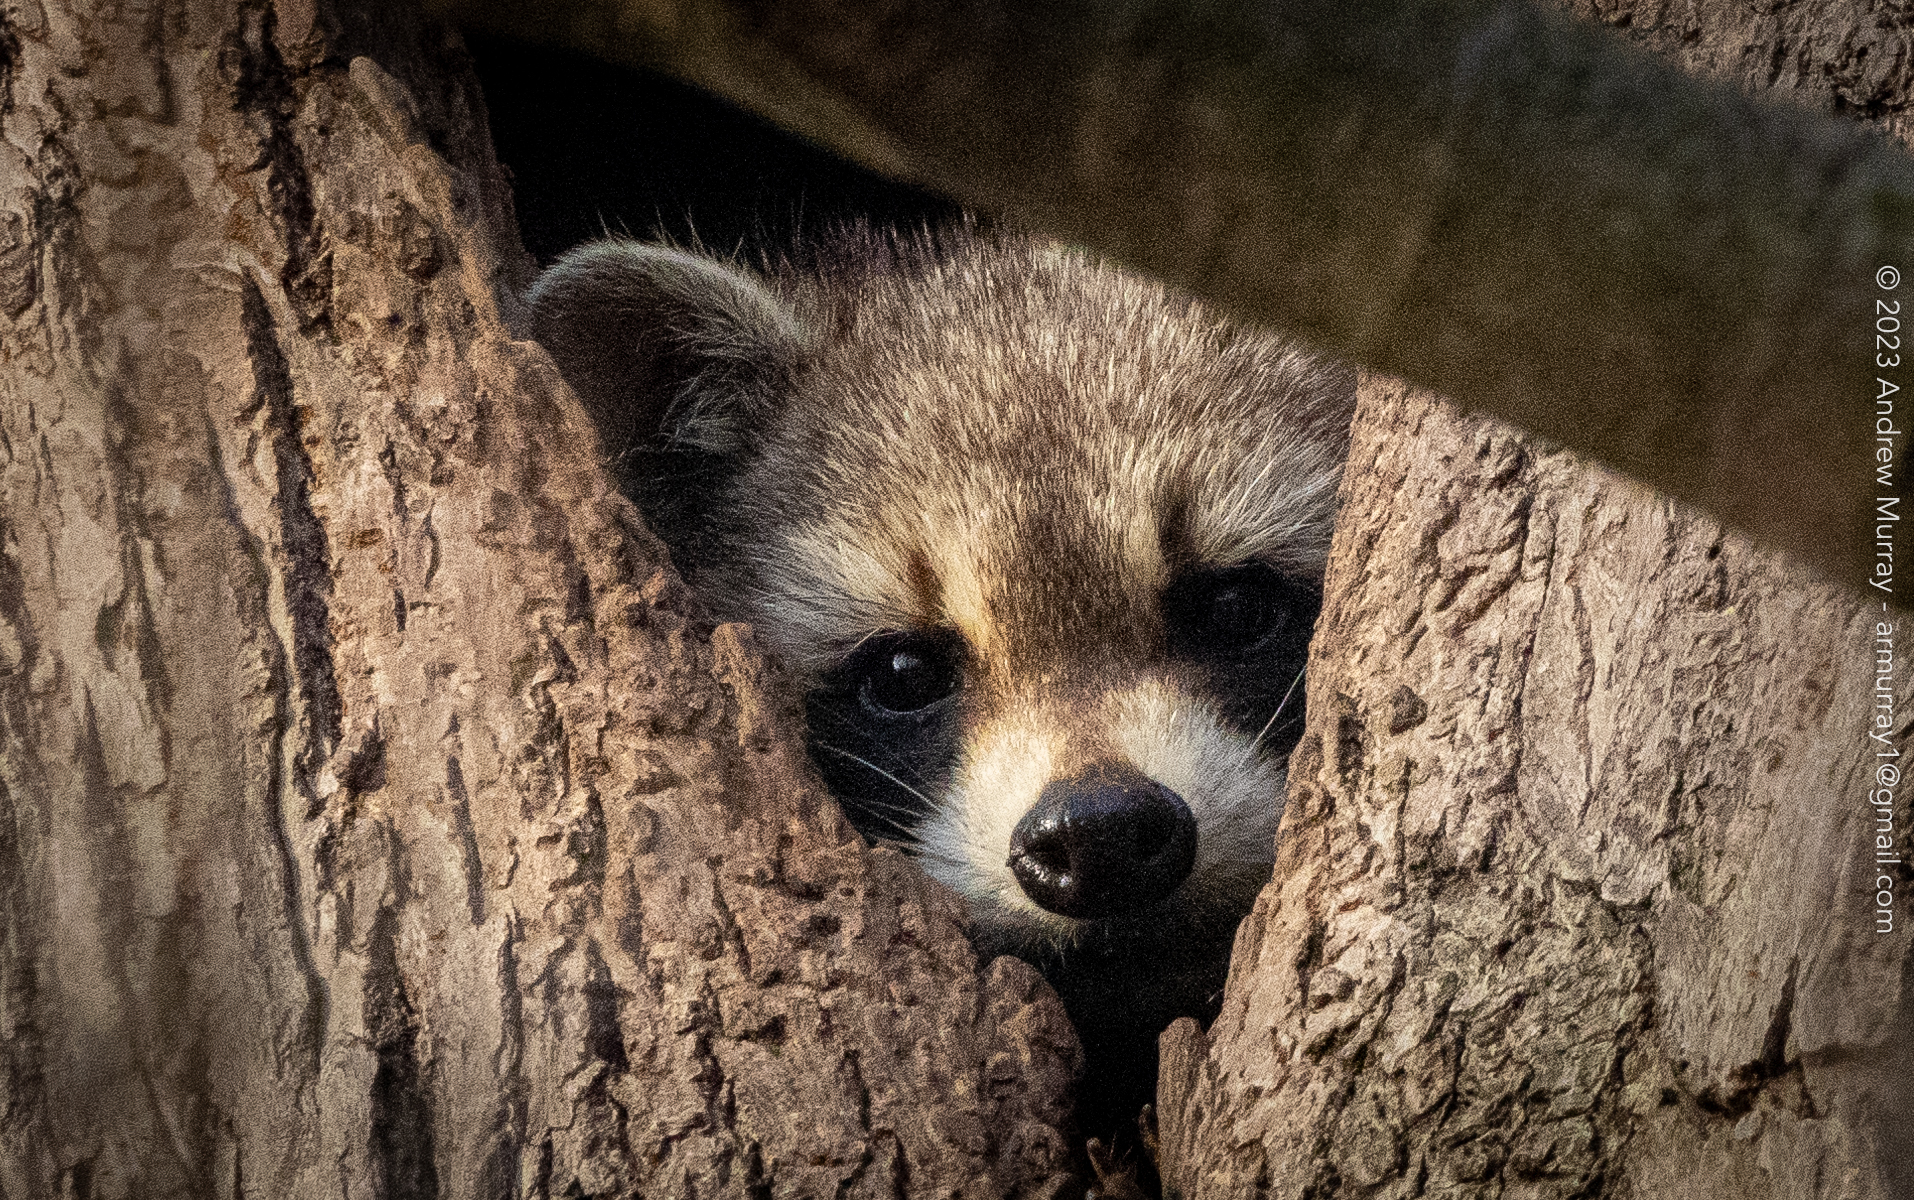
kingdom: Animalia
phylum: Chordata
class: Mammalia
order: Carnivora
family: Procyonidae
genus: Procyon
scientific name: Procyon lotor
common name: Raccoon
